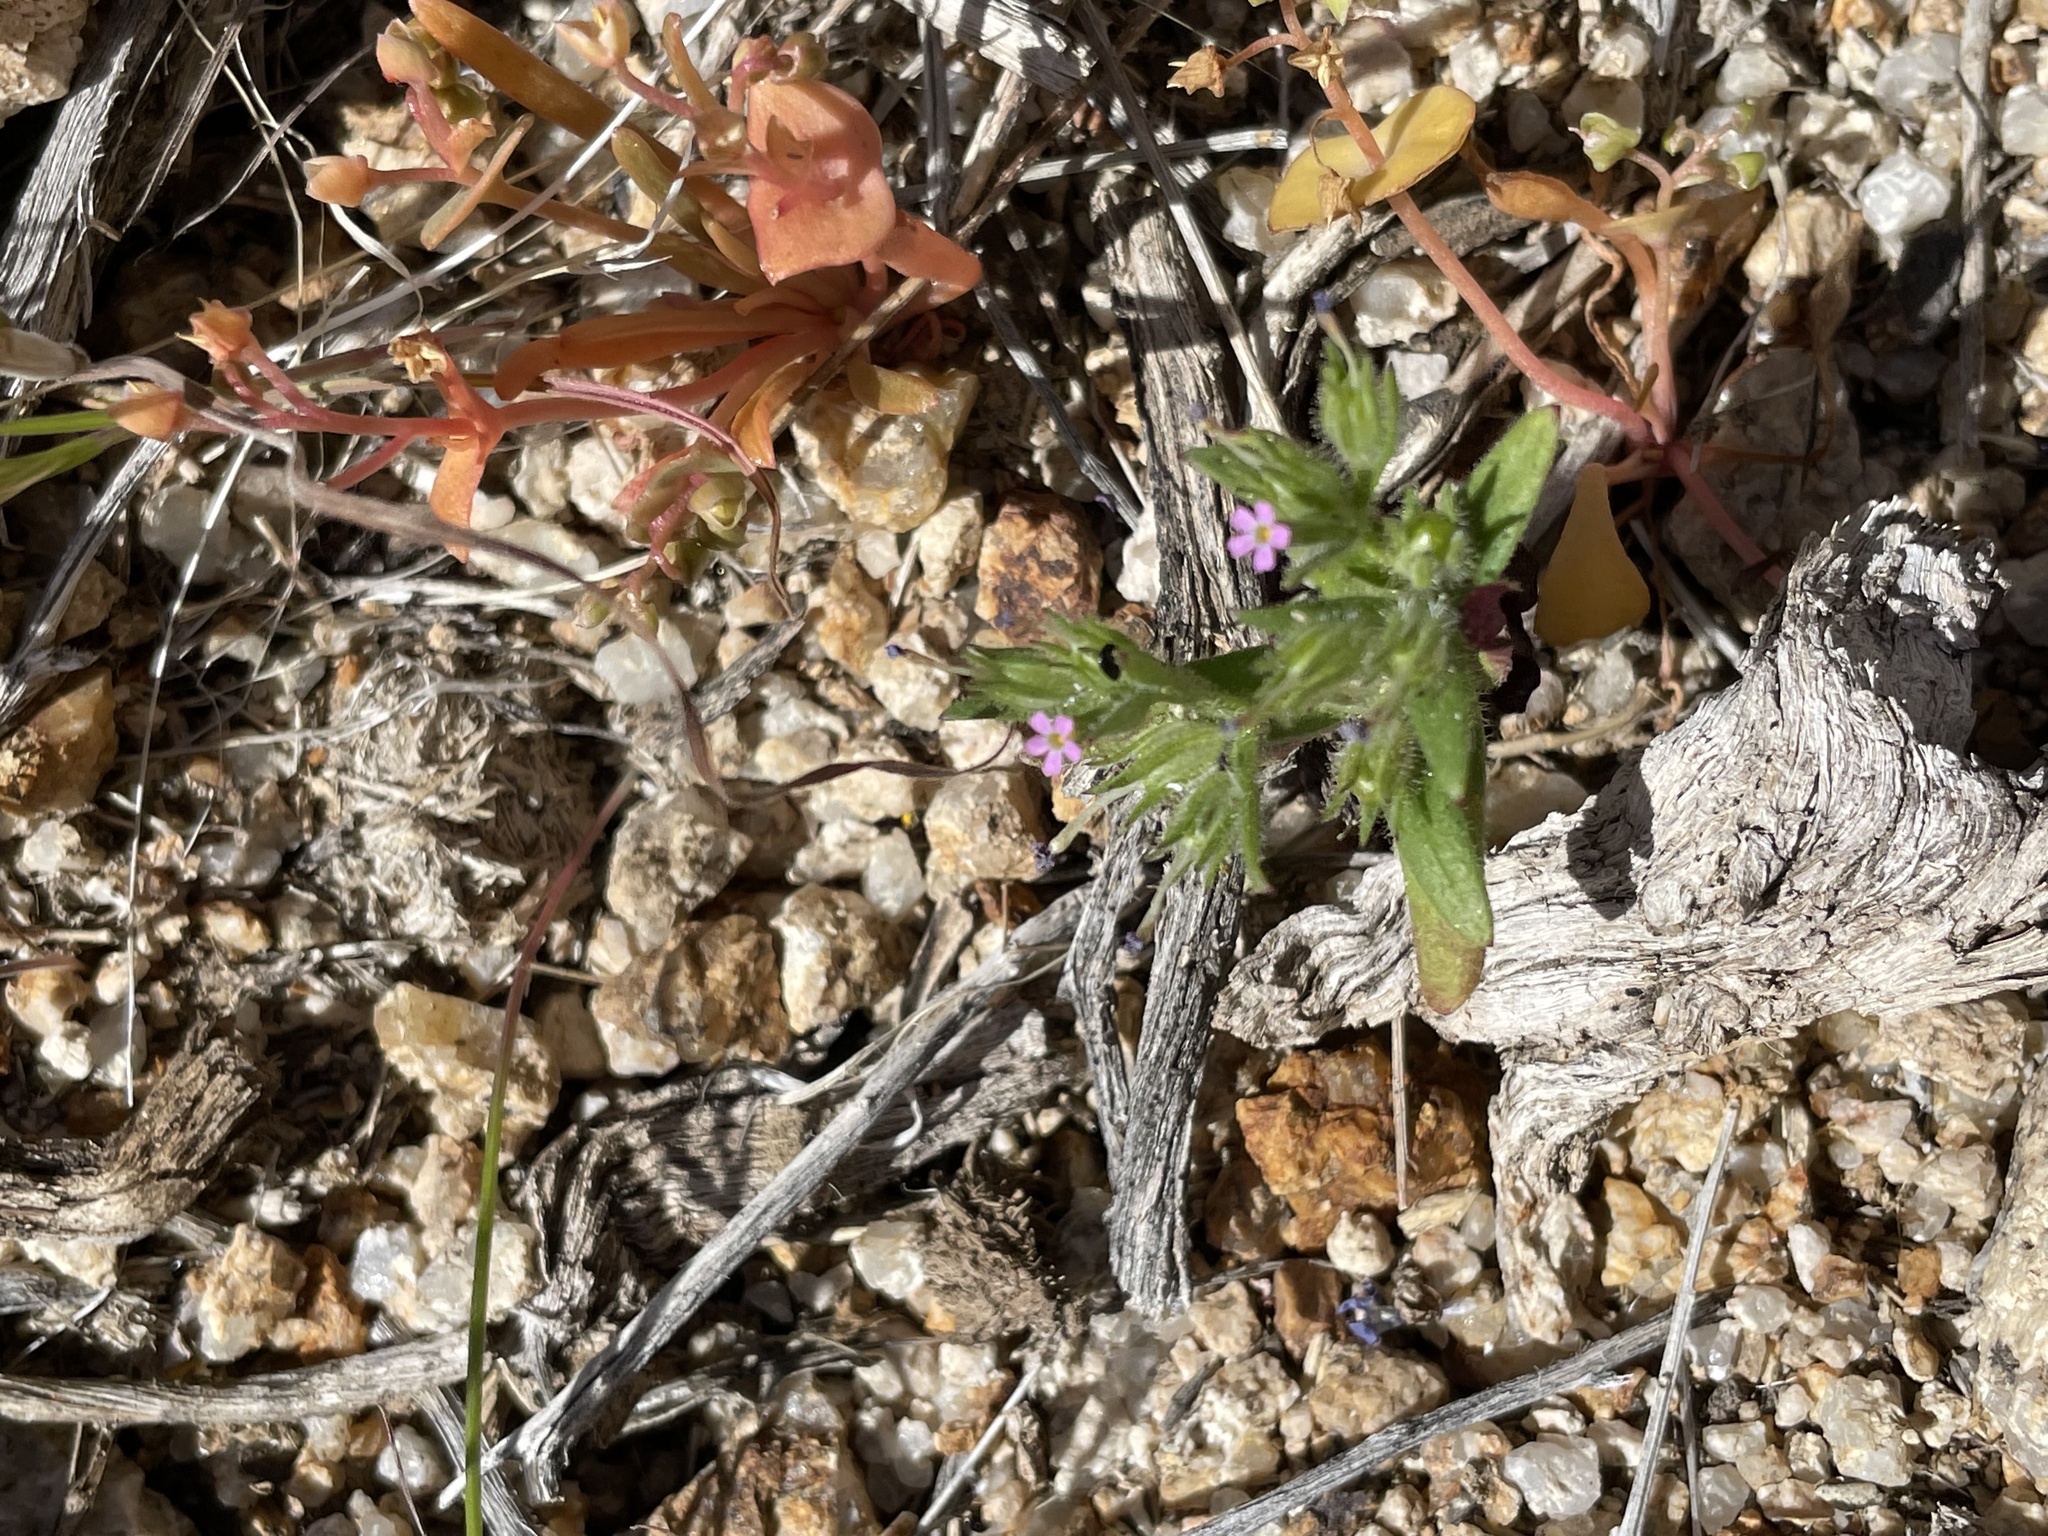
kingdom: Plantae
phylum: Tracheophyta
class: Magnoliopsida
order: Ericales
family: Polemoniaceae
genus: Phlox
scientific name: Phlox gracilis
